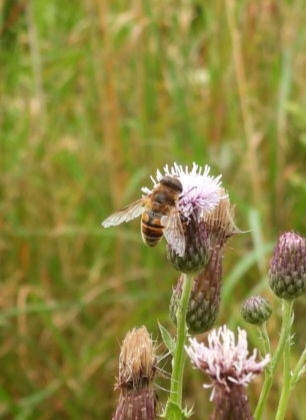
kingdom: Animalia
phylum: Arthropoda
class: Insecta
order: Diptera
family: Syrphidae
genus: Eristalis
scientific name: Eristalis tenax
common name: Drone fly
